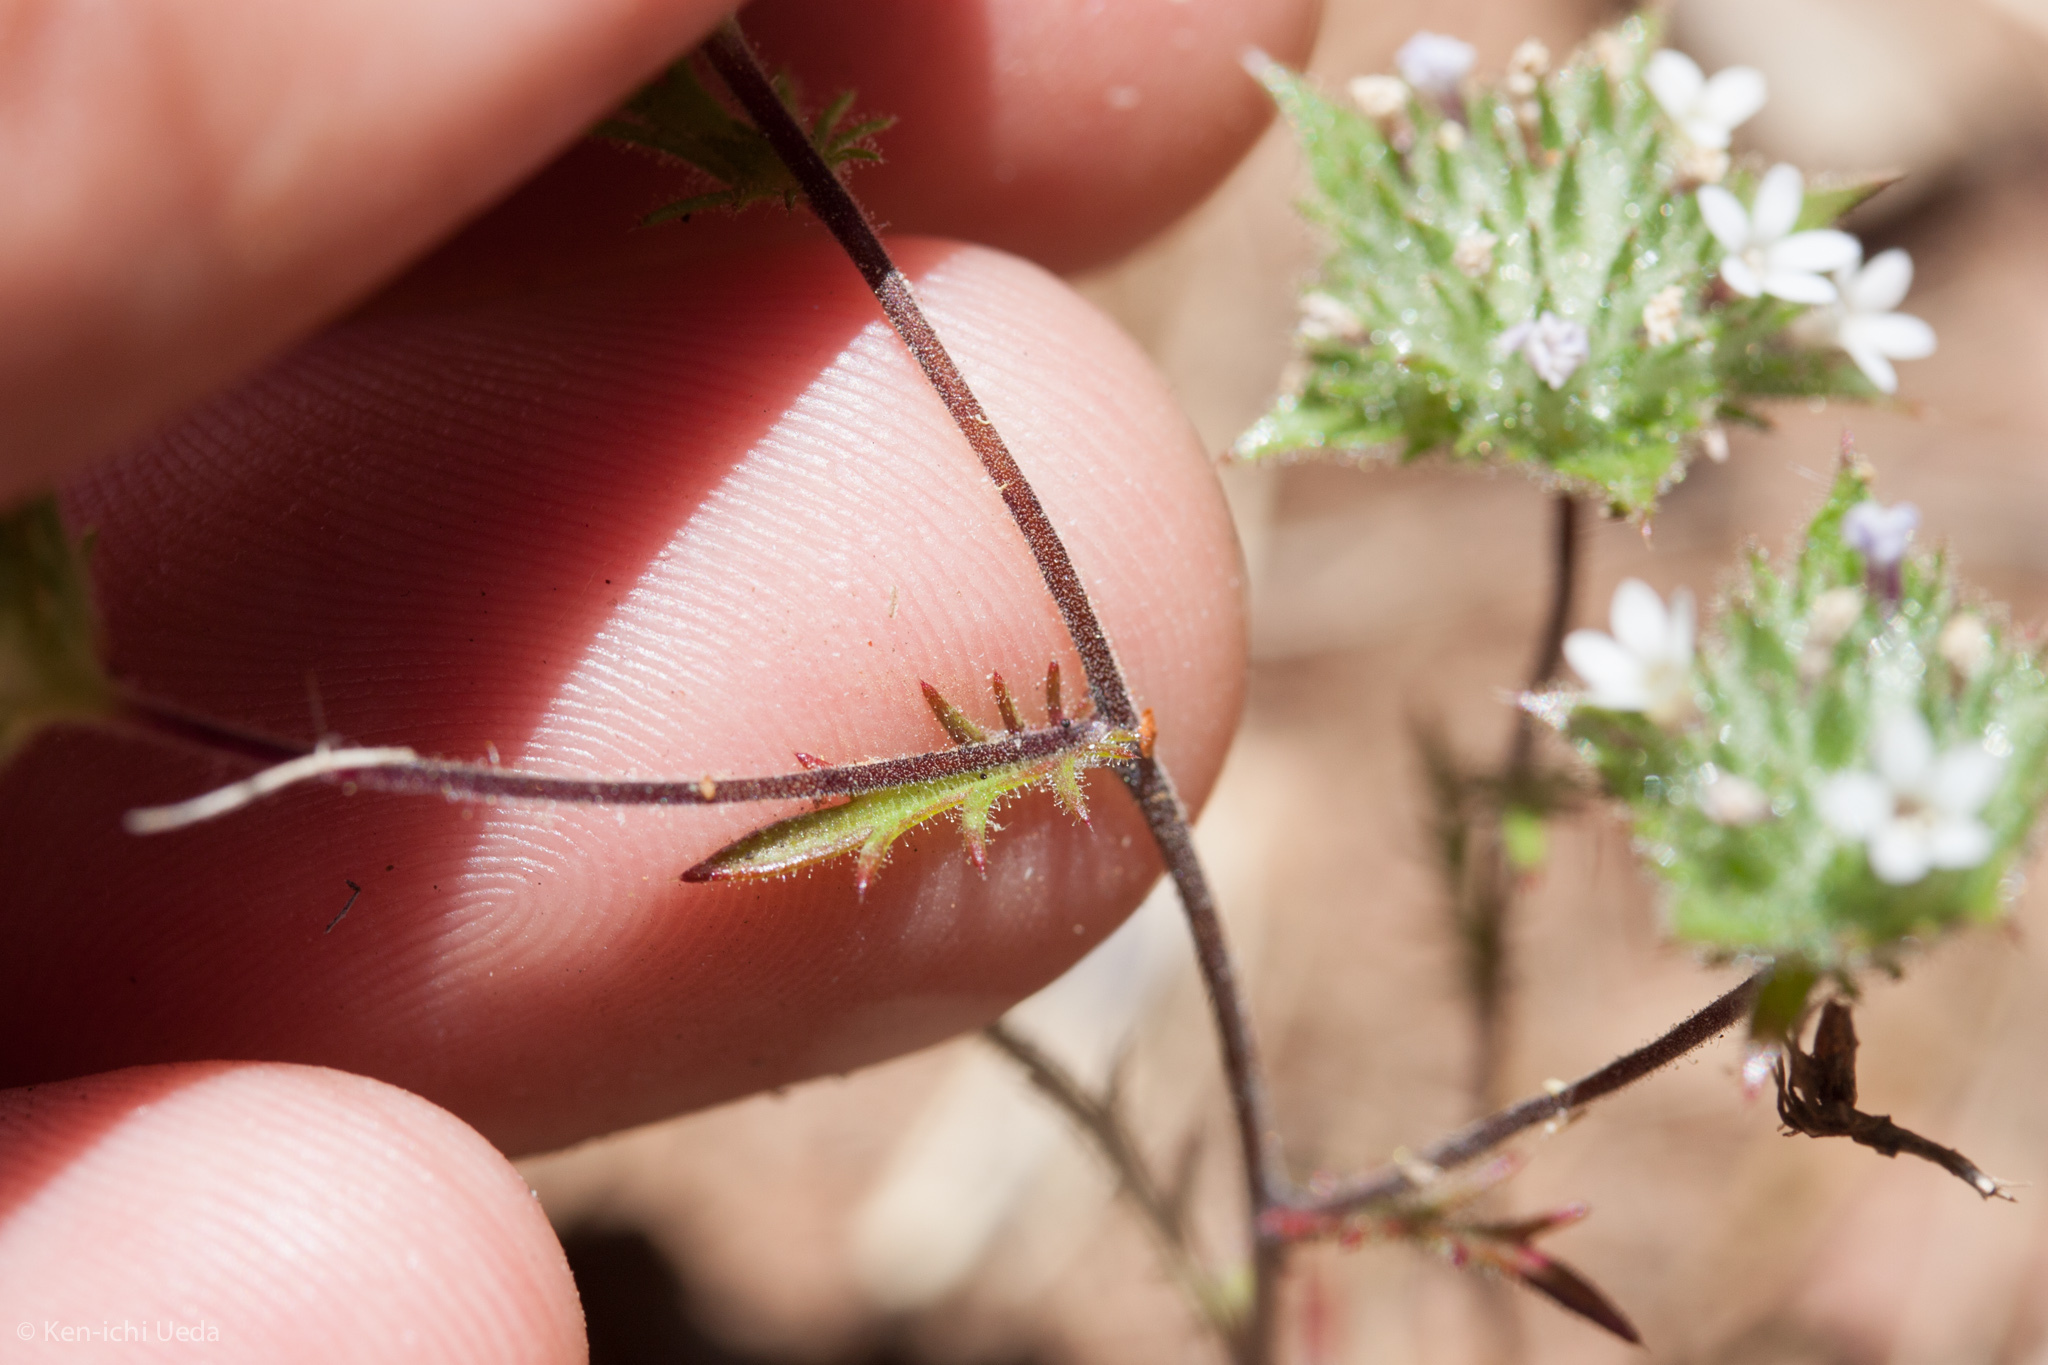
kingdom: Plantae
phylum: Tracheophyta
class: Magnoliopsida
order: Ericales
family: Polemoniaceae
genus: Navarretia
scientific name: Navarretia rosulata
